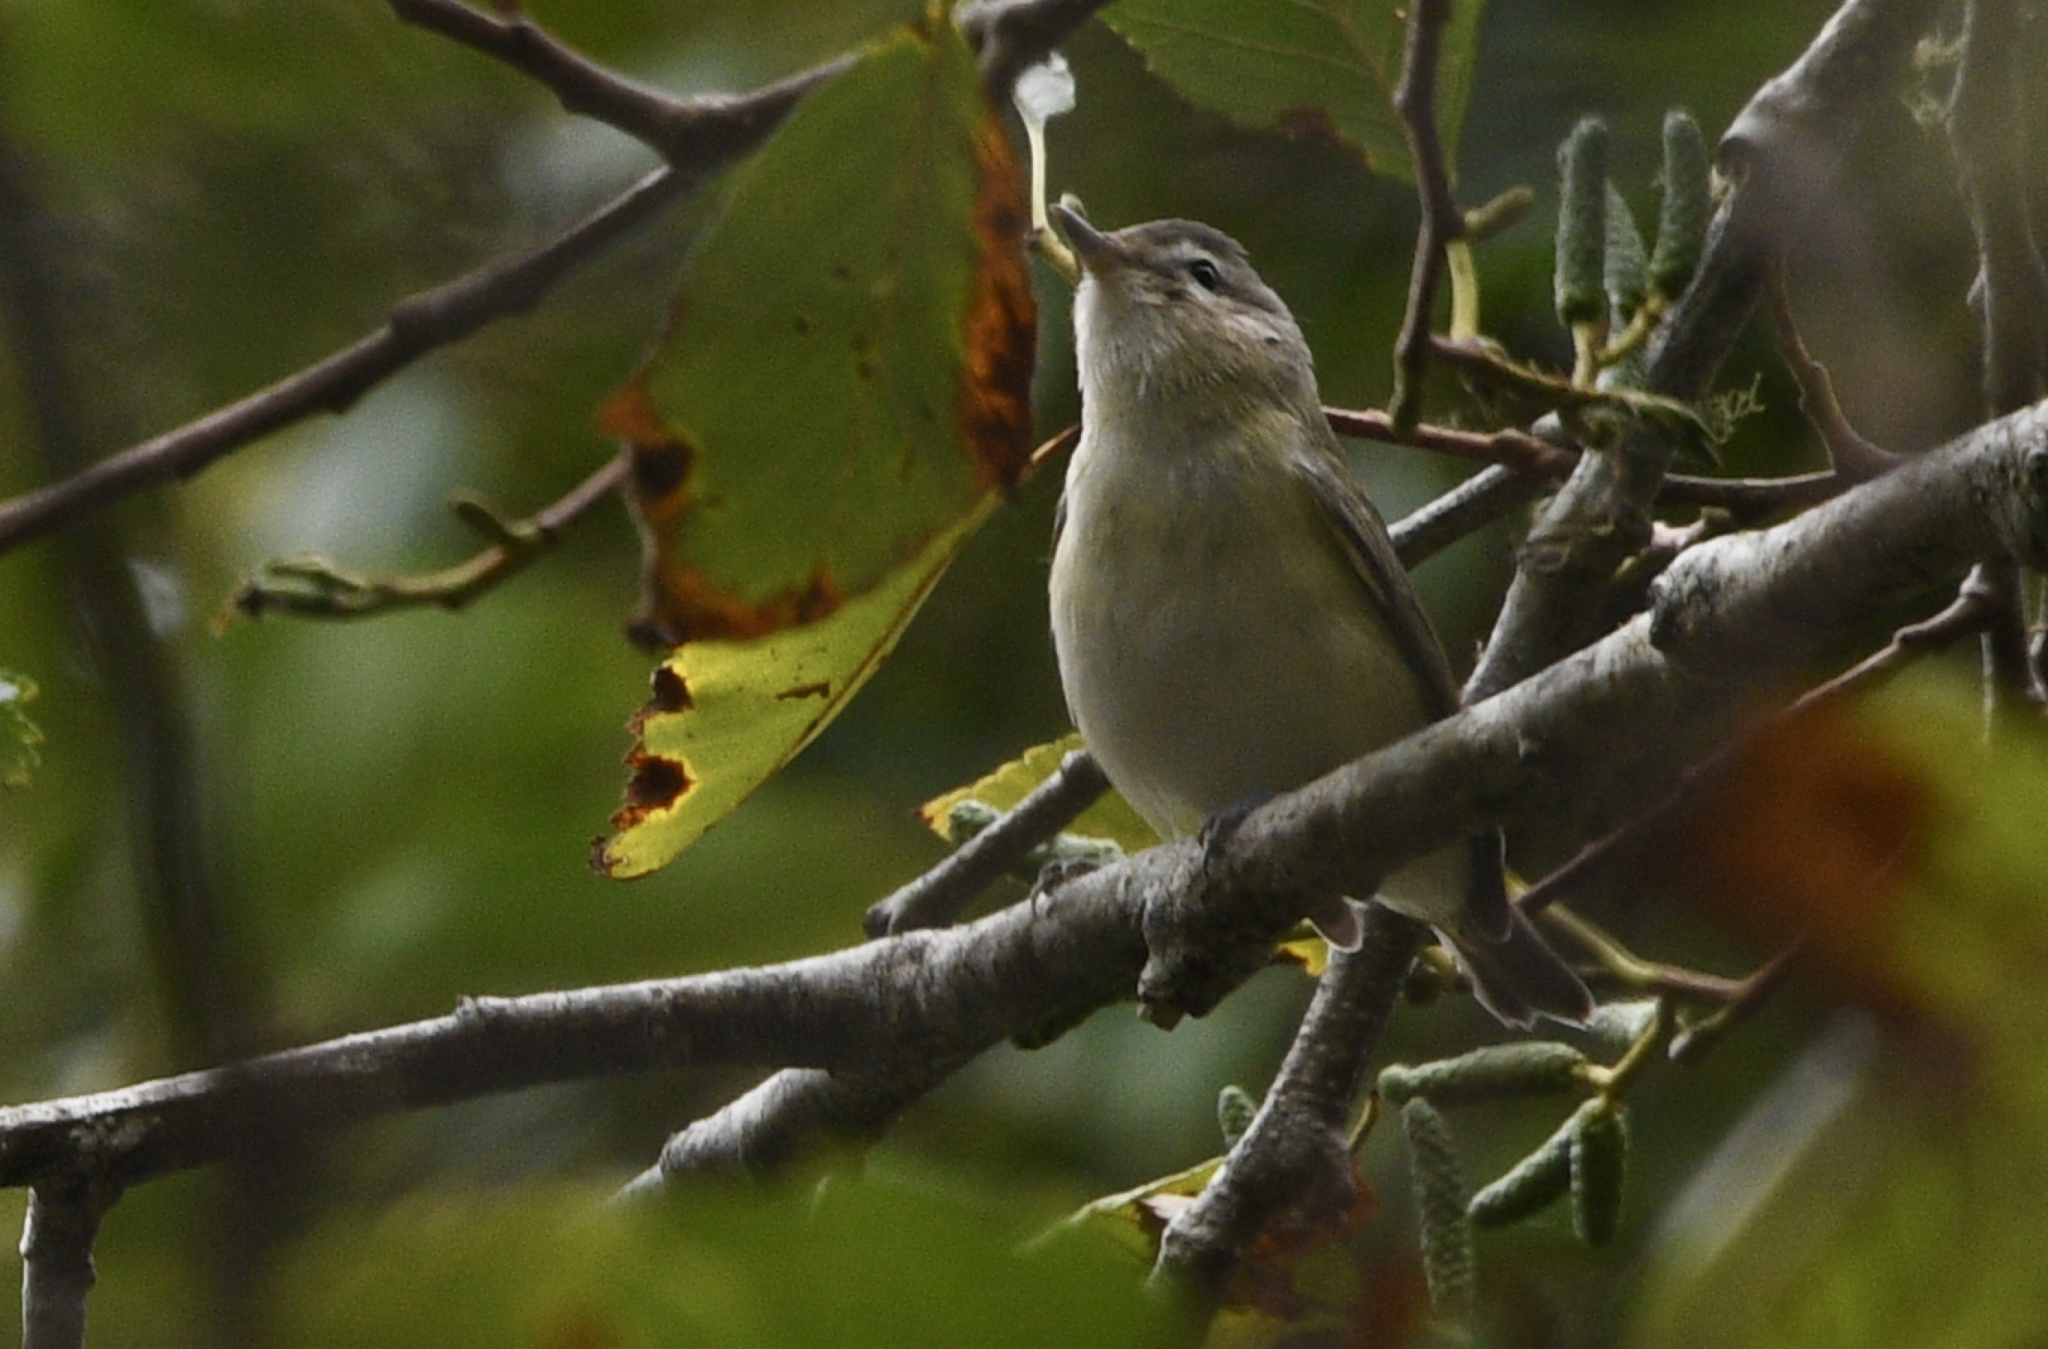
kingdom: Animalia
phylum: Chordata
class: Aves
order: Passeriformes
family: Vireonidae
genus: Vireo
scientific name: Vireo gilvus
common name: Warbling vireo
